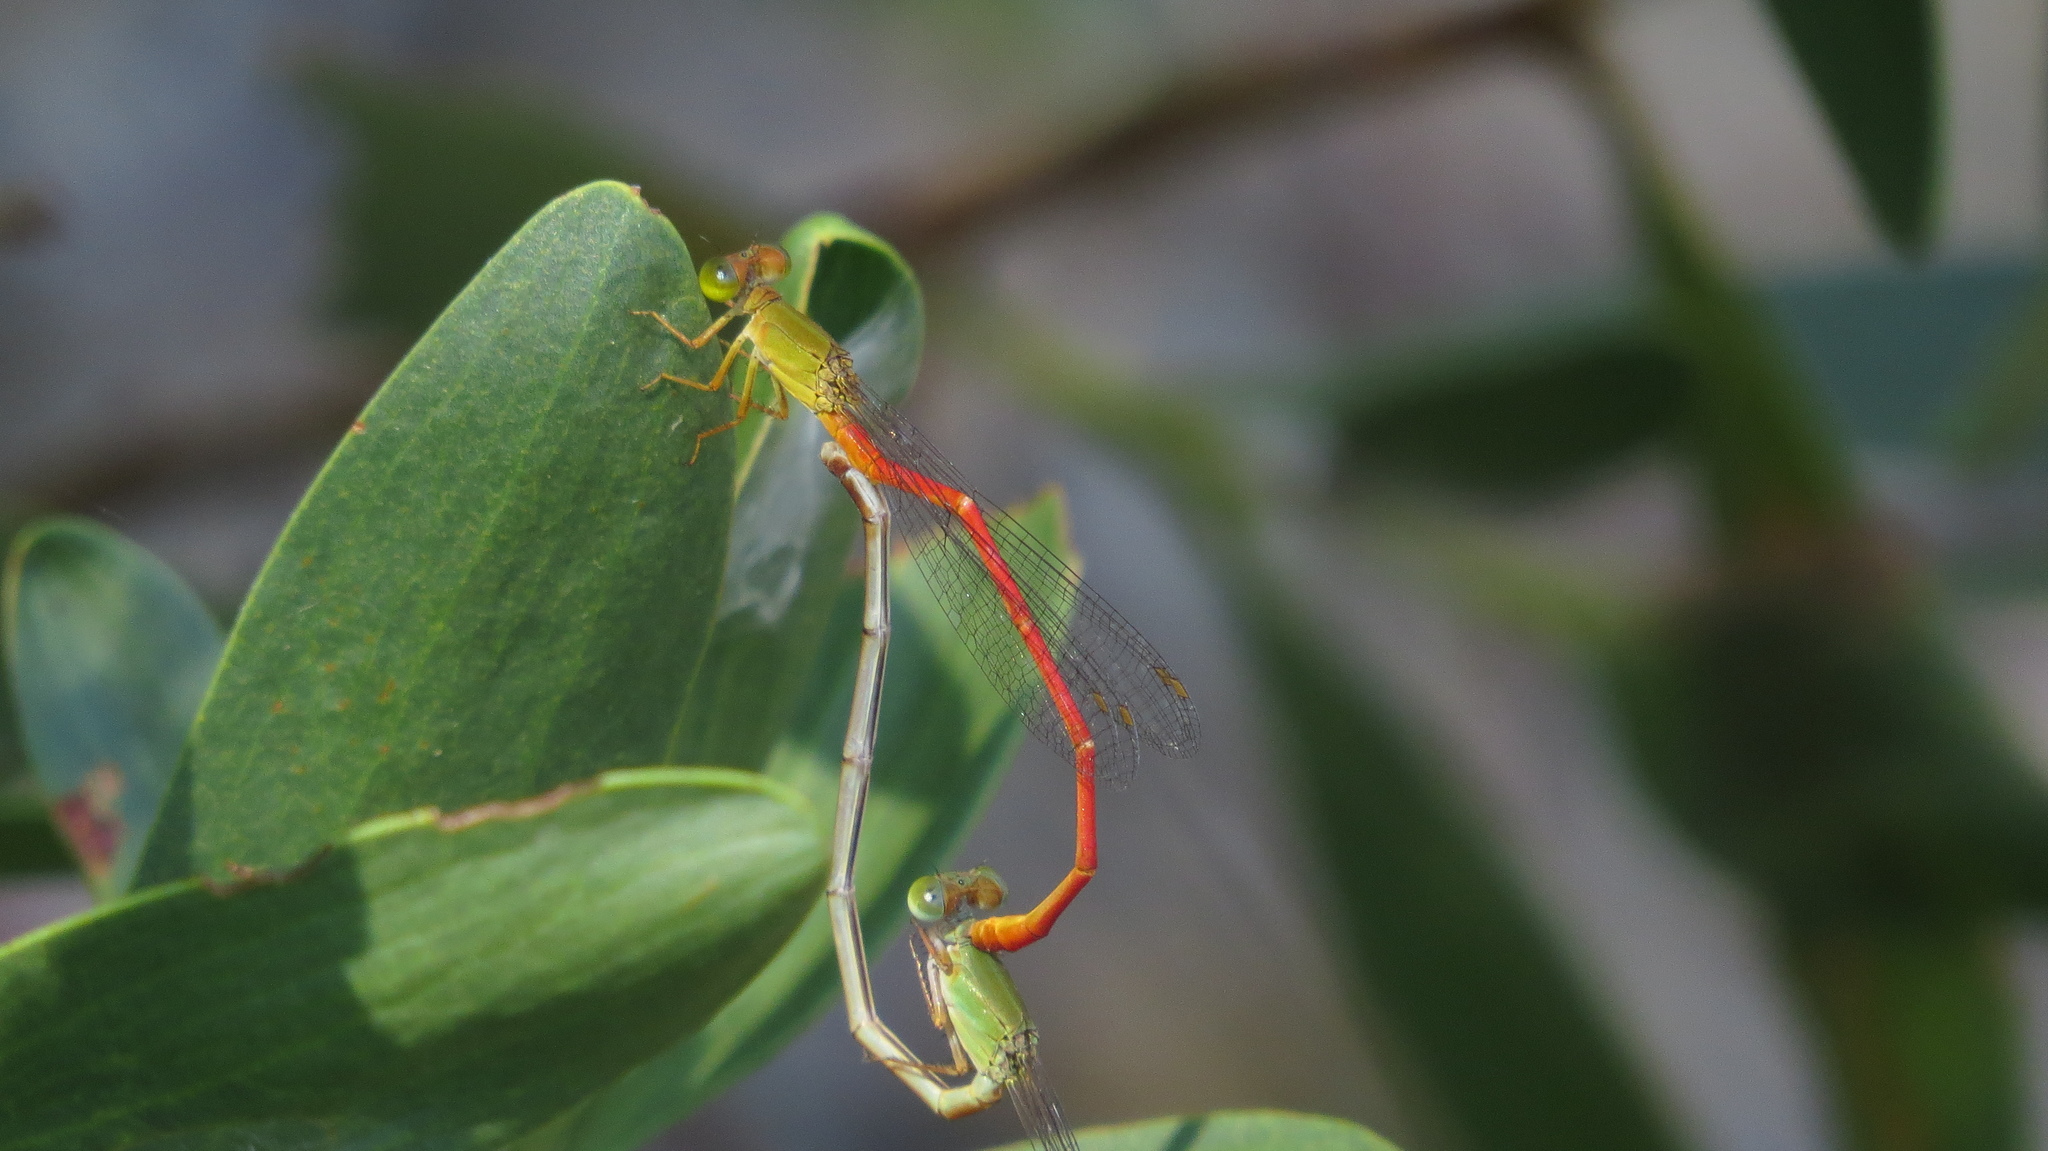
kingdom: Animalia
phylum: Arthropoda
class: Insecta
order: Odonata
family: Coenagrionidae
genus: Ceriagrion
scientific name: Ceriagrion aeruginosum
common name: Redtail
